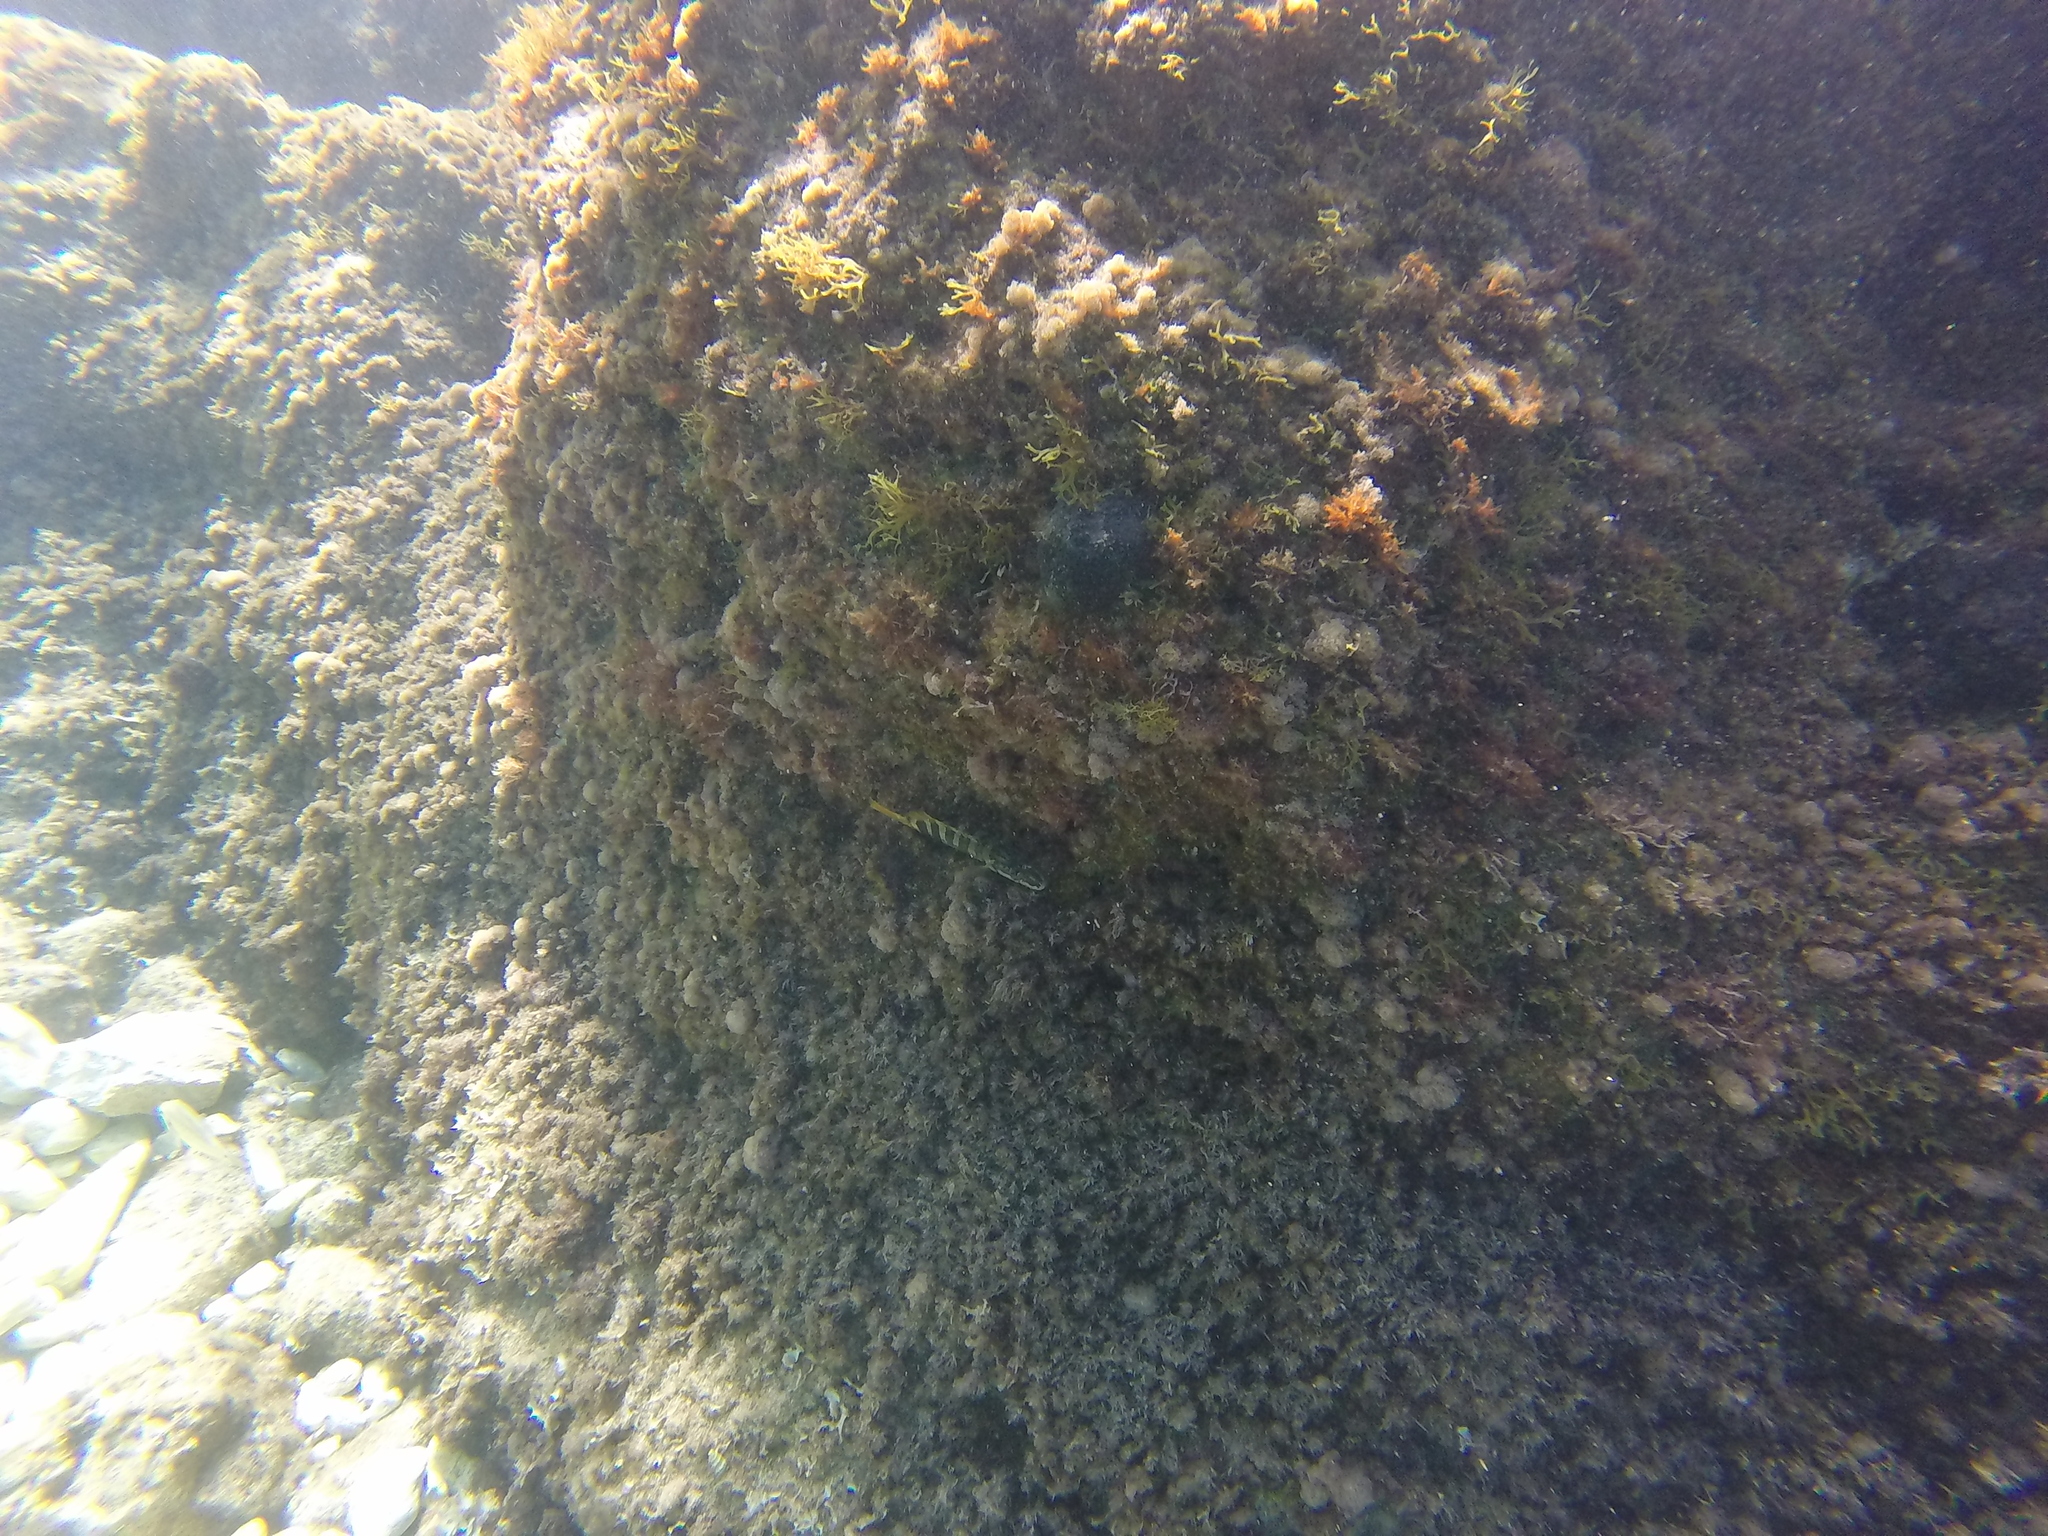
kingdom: Animalia
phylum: Chordata
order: Perciformes
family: Serranidae
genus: Serranus
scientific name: Serranus scriba
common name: Painted comber
